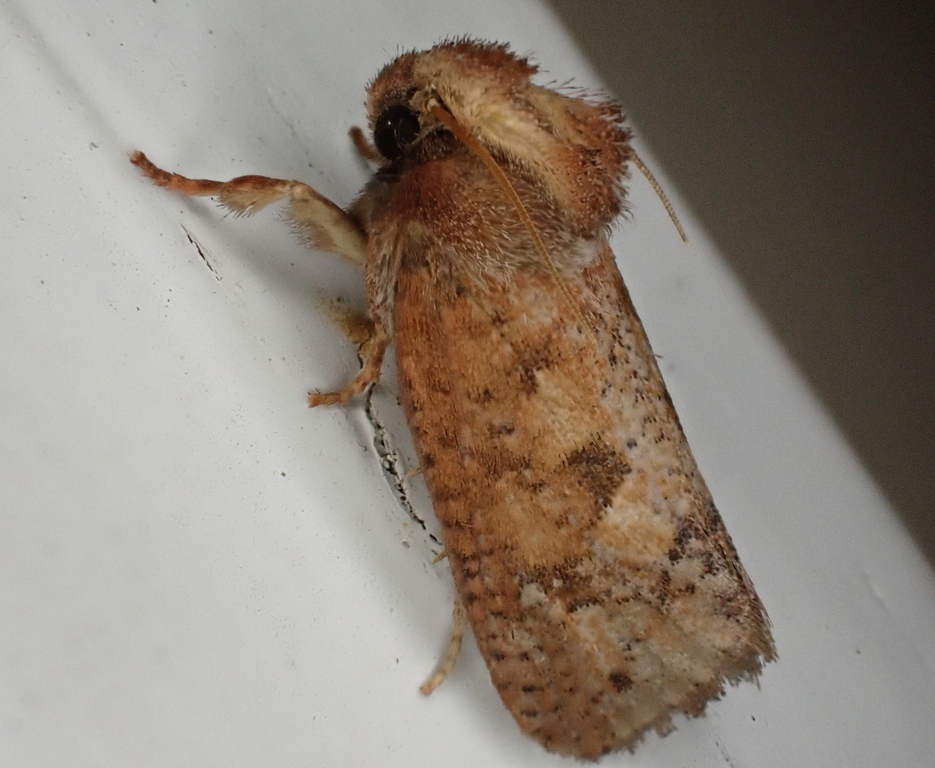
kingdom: Animalia
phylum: Arthropoda
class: Insecta
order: Lepidoptera
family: Tineidae
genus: Acrolophus
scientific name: Acrolophus plumifrontella
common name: Eastern grass tubeworm moth
